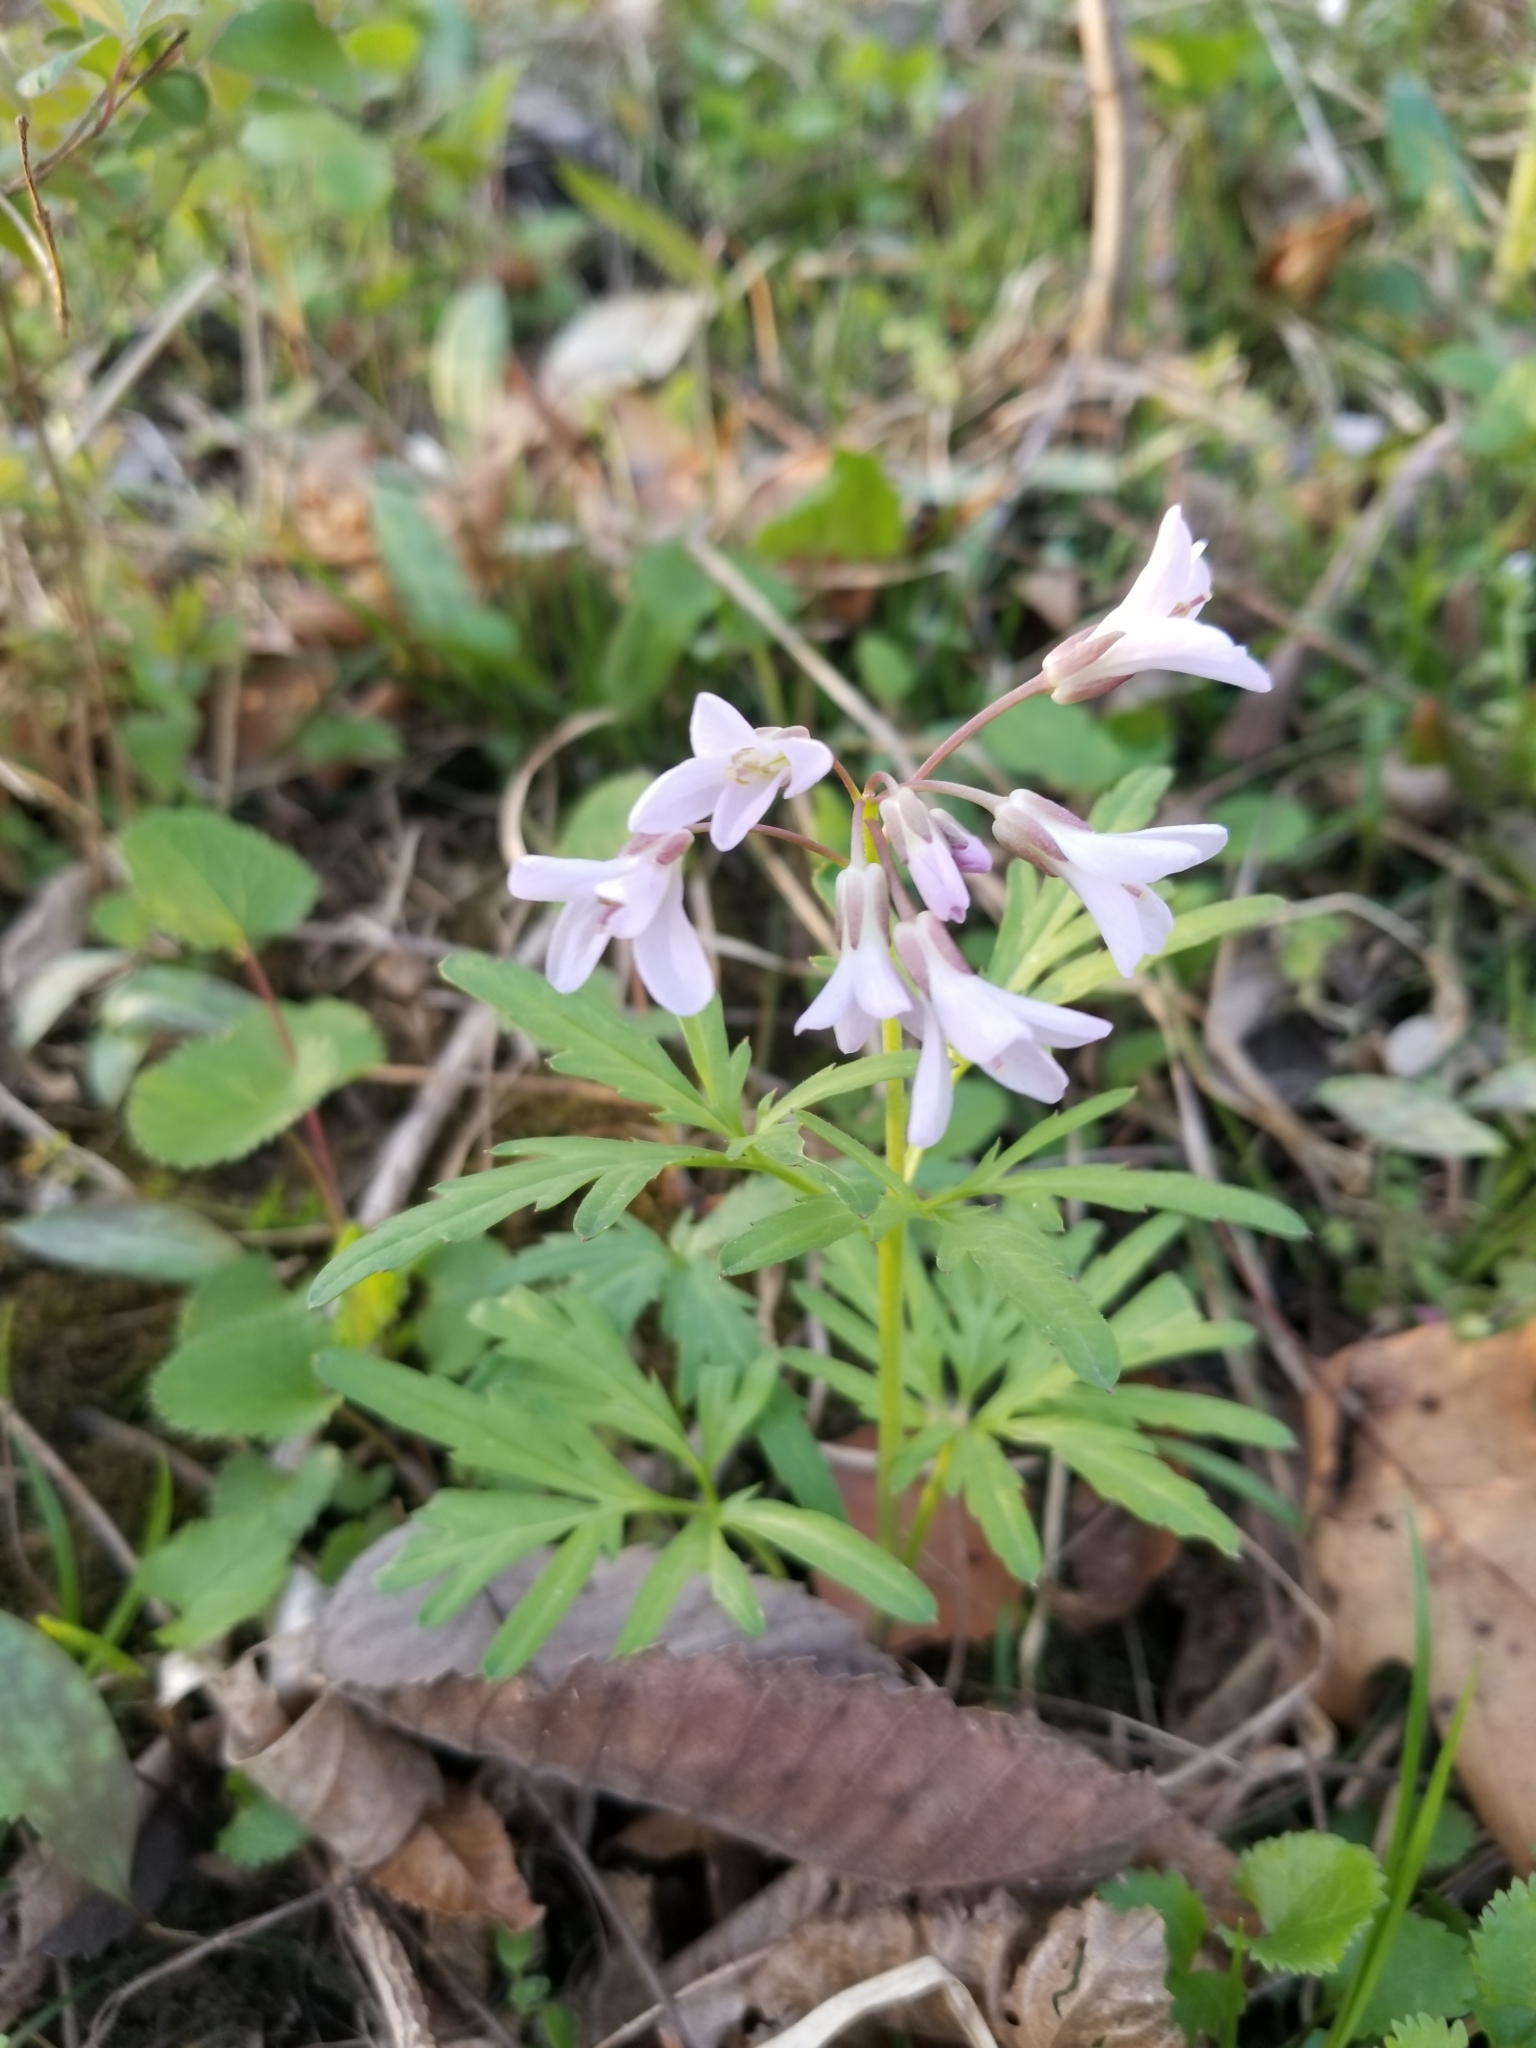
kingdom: Plantae
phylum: Tracheophyta
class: Magnoliopsida
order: Brassicales
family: Brassicaceae
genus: Cardamine
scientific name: Cardamine concatenata
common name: Cut-leaf toothcup
